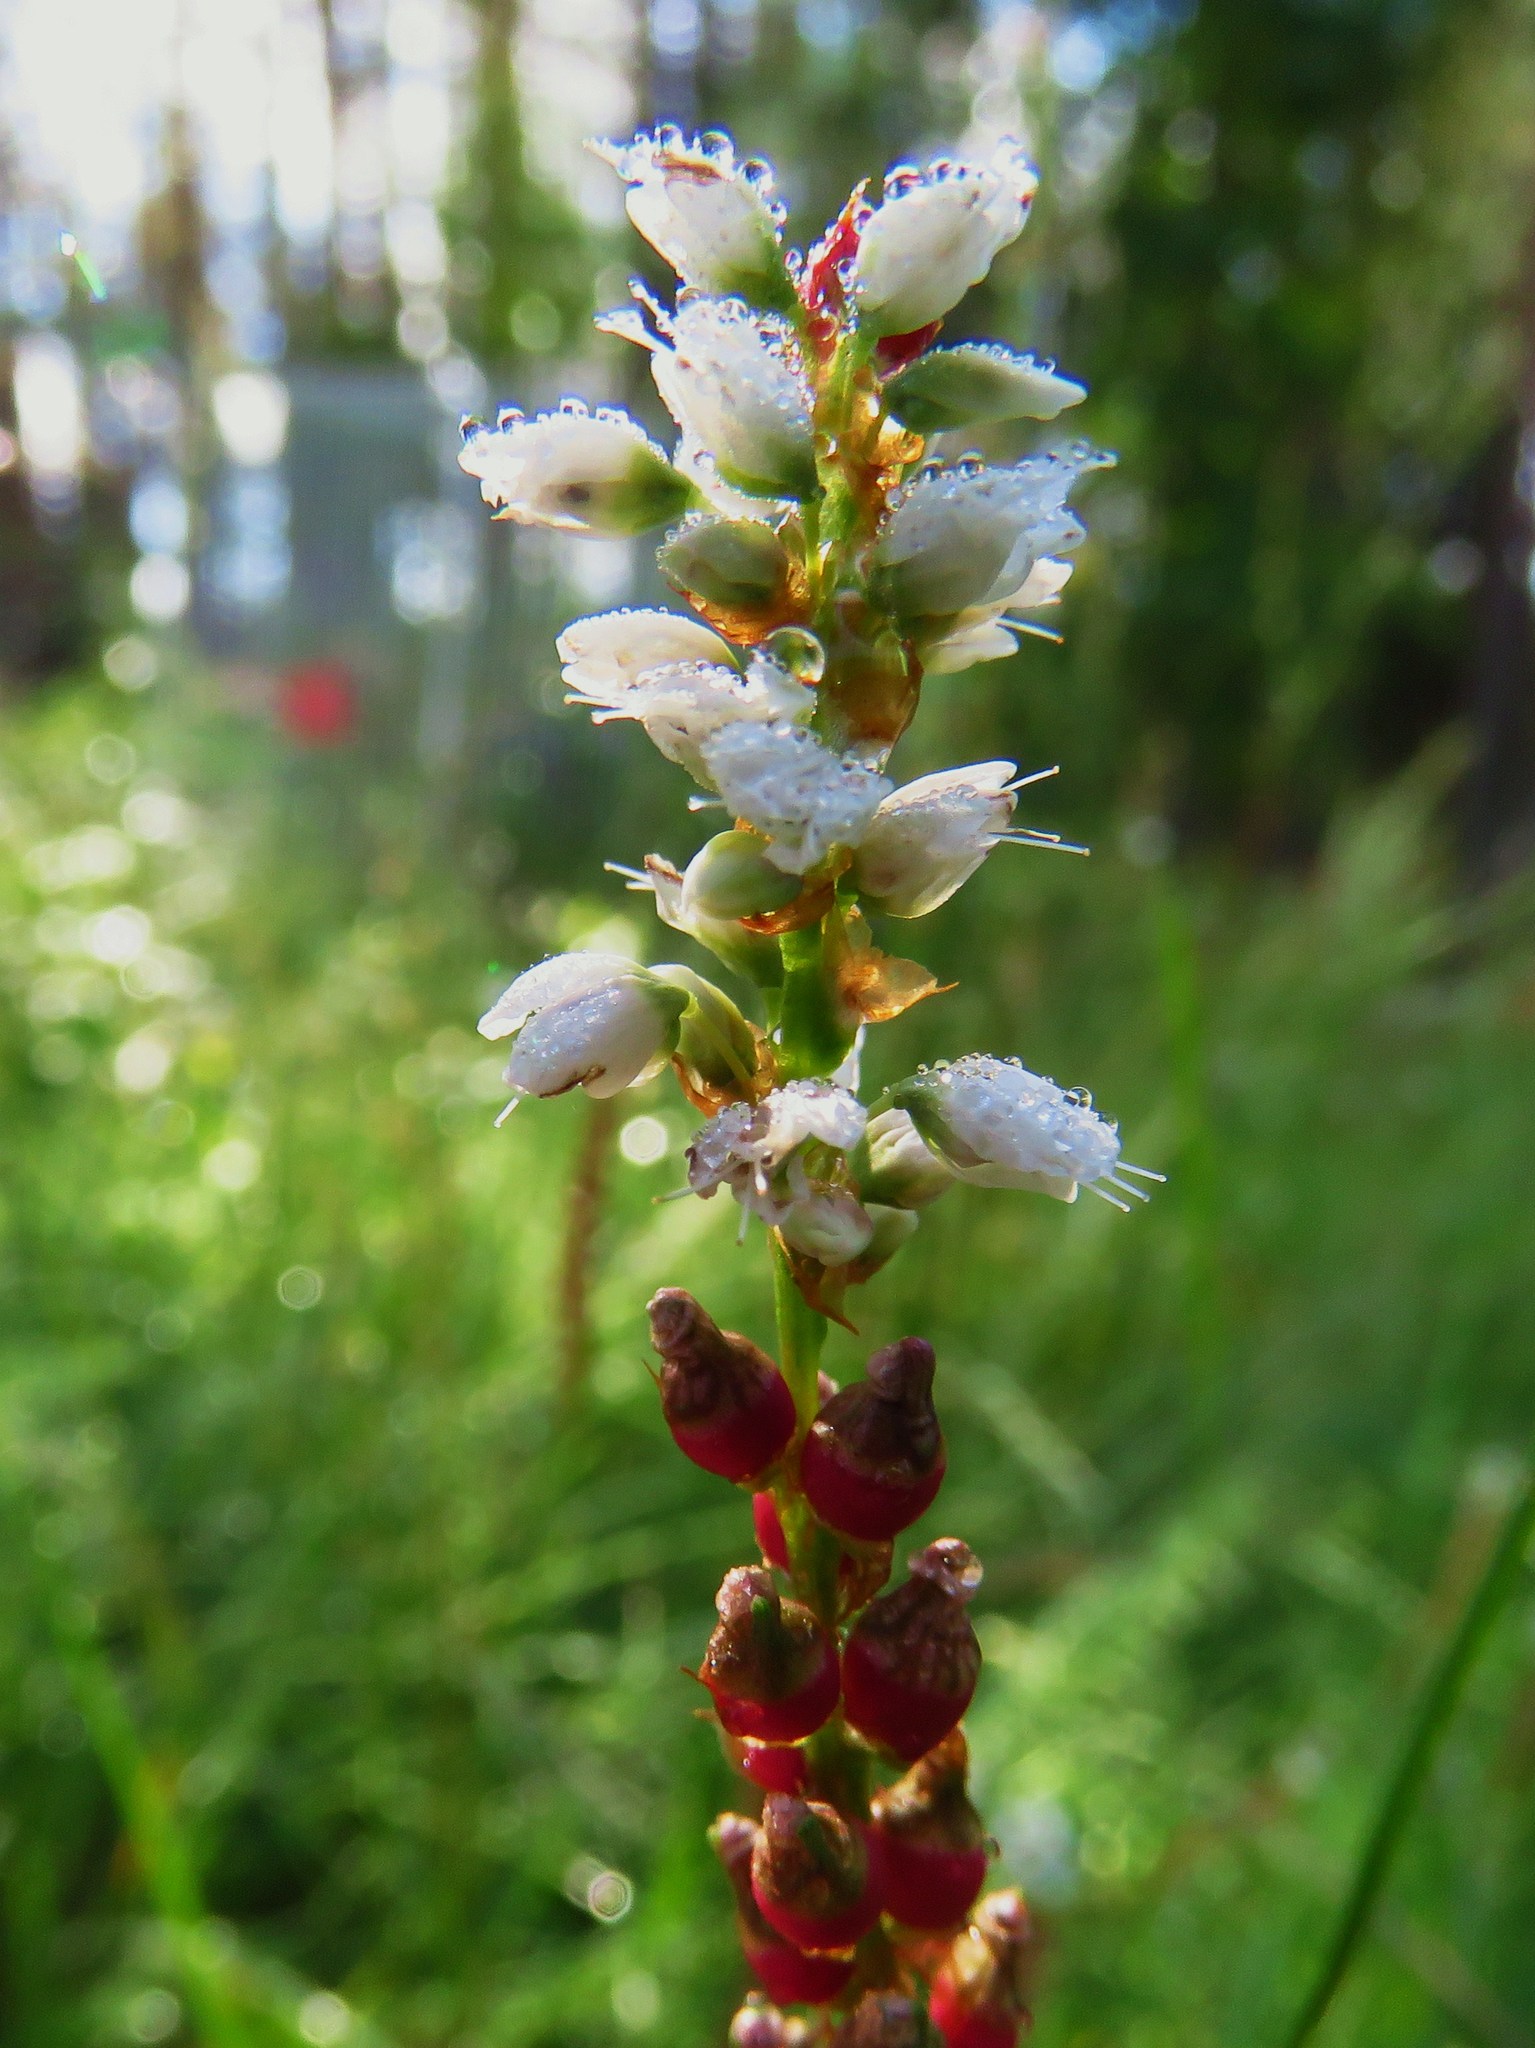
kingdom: Plantae
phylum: Tracheophyta
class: Magnoliopsida
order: Caryophyllales
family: Polygonaceae
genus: Bistorta
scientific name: Bistorta vivipara
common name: Alpine bistort
